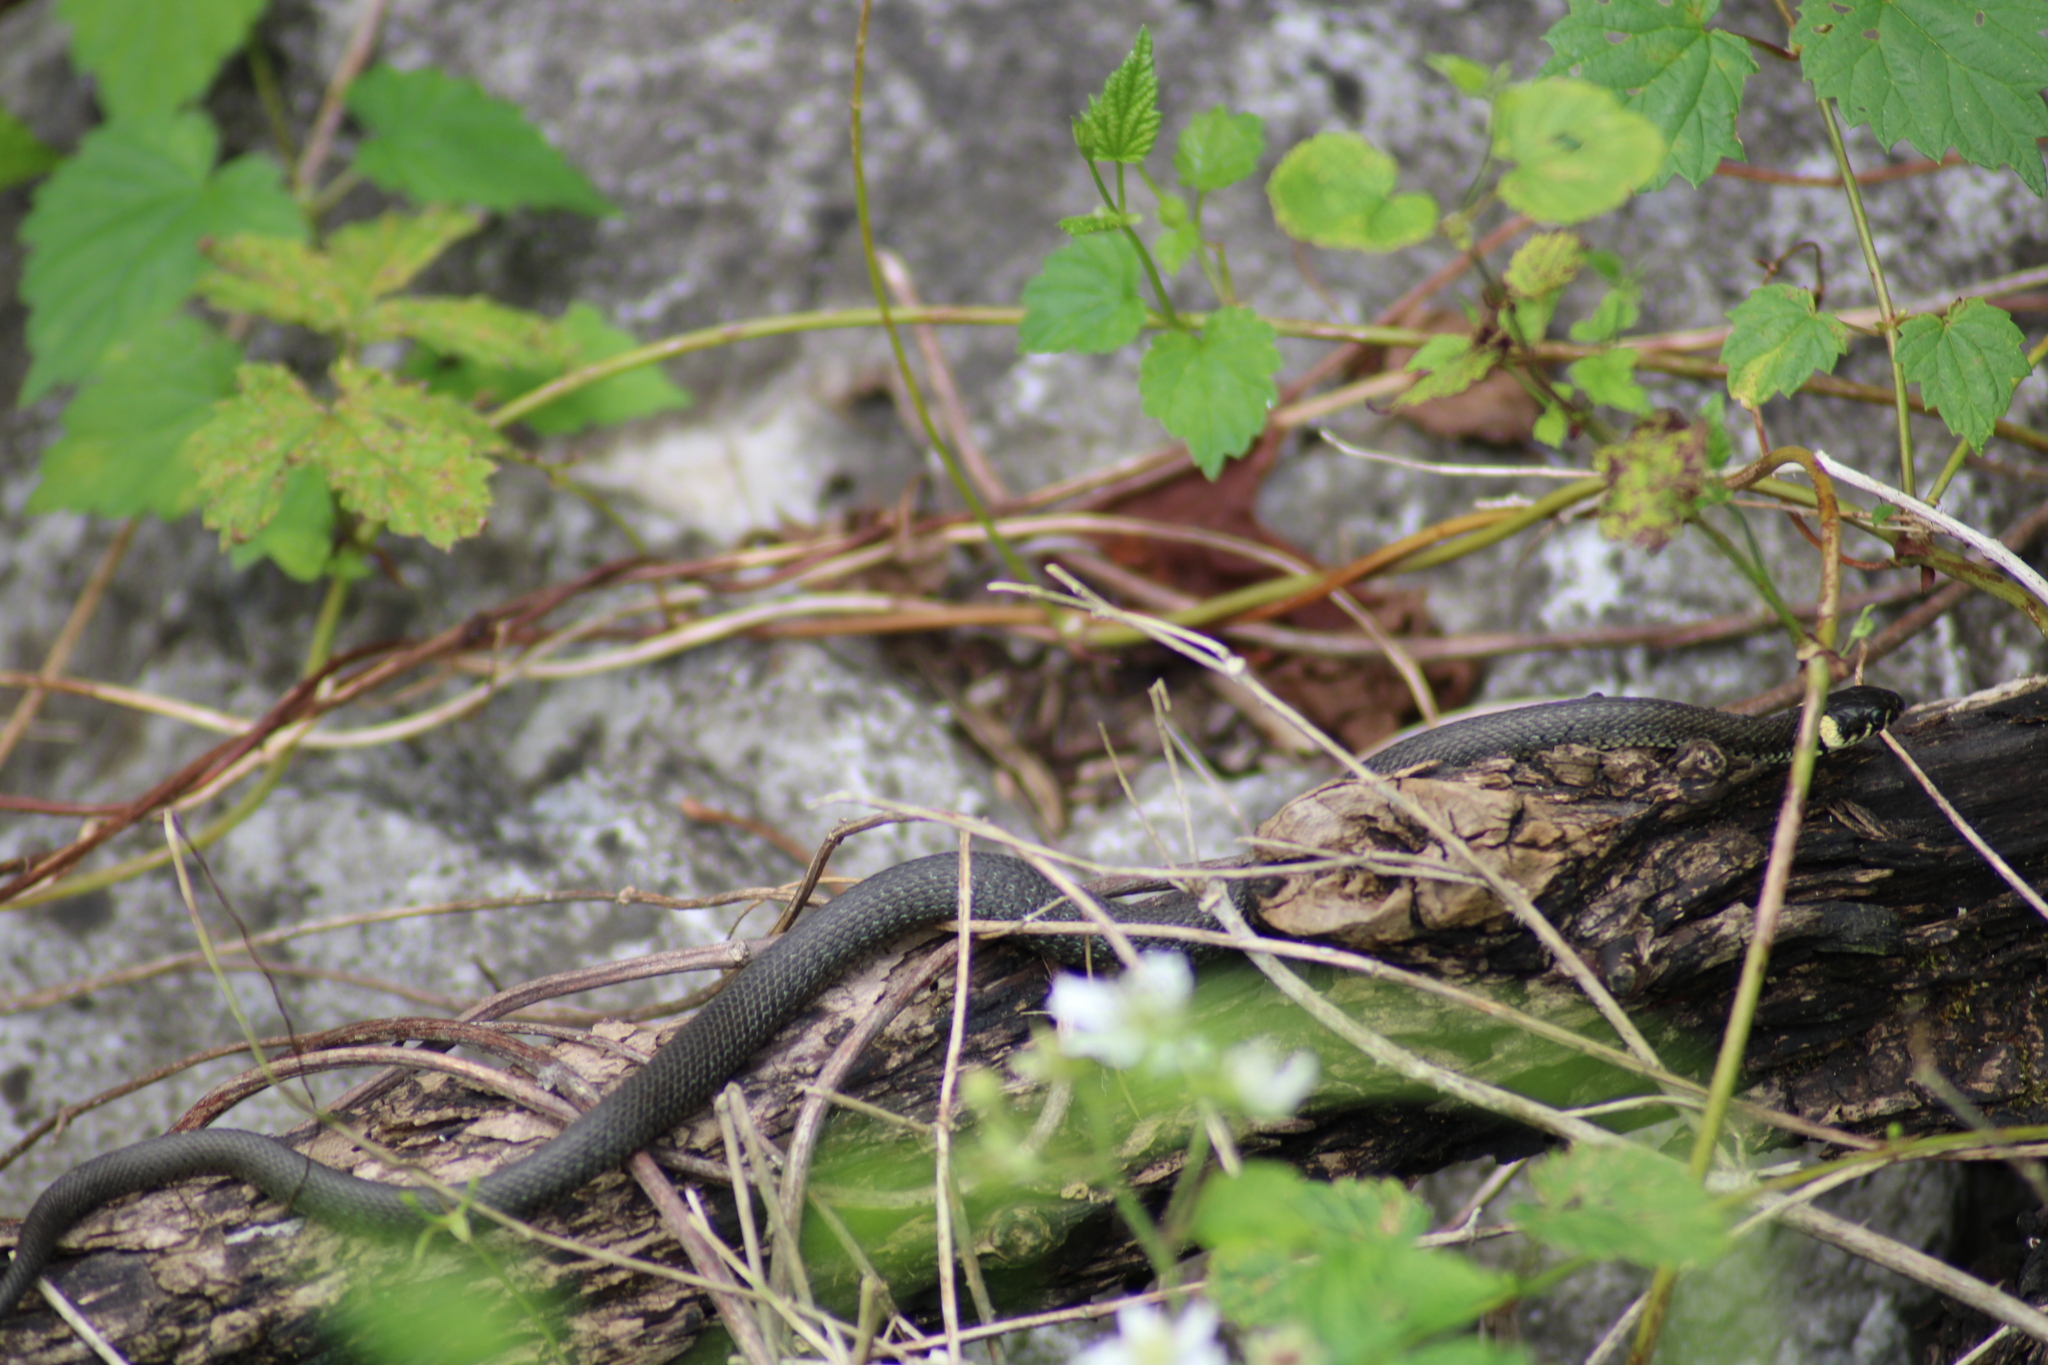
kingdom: Animalia
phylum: Chordata
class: Squamata
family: Colubridae
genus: Natrix
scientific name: Natrix natrix
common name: Grass snake
